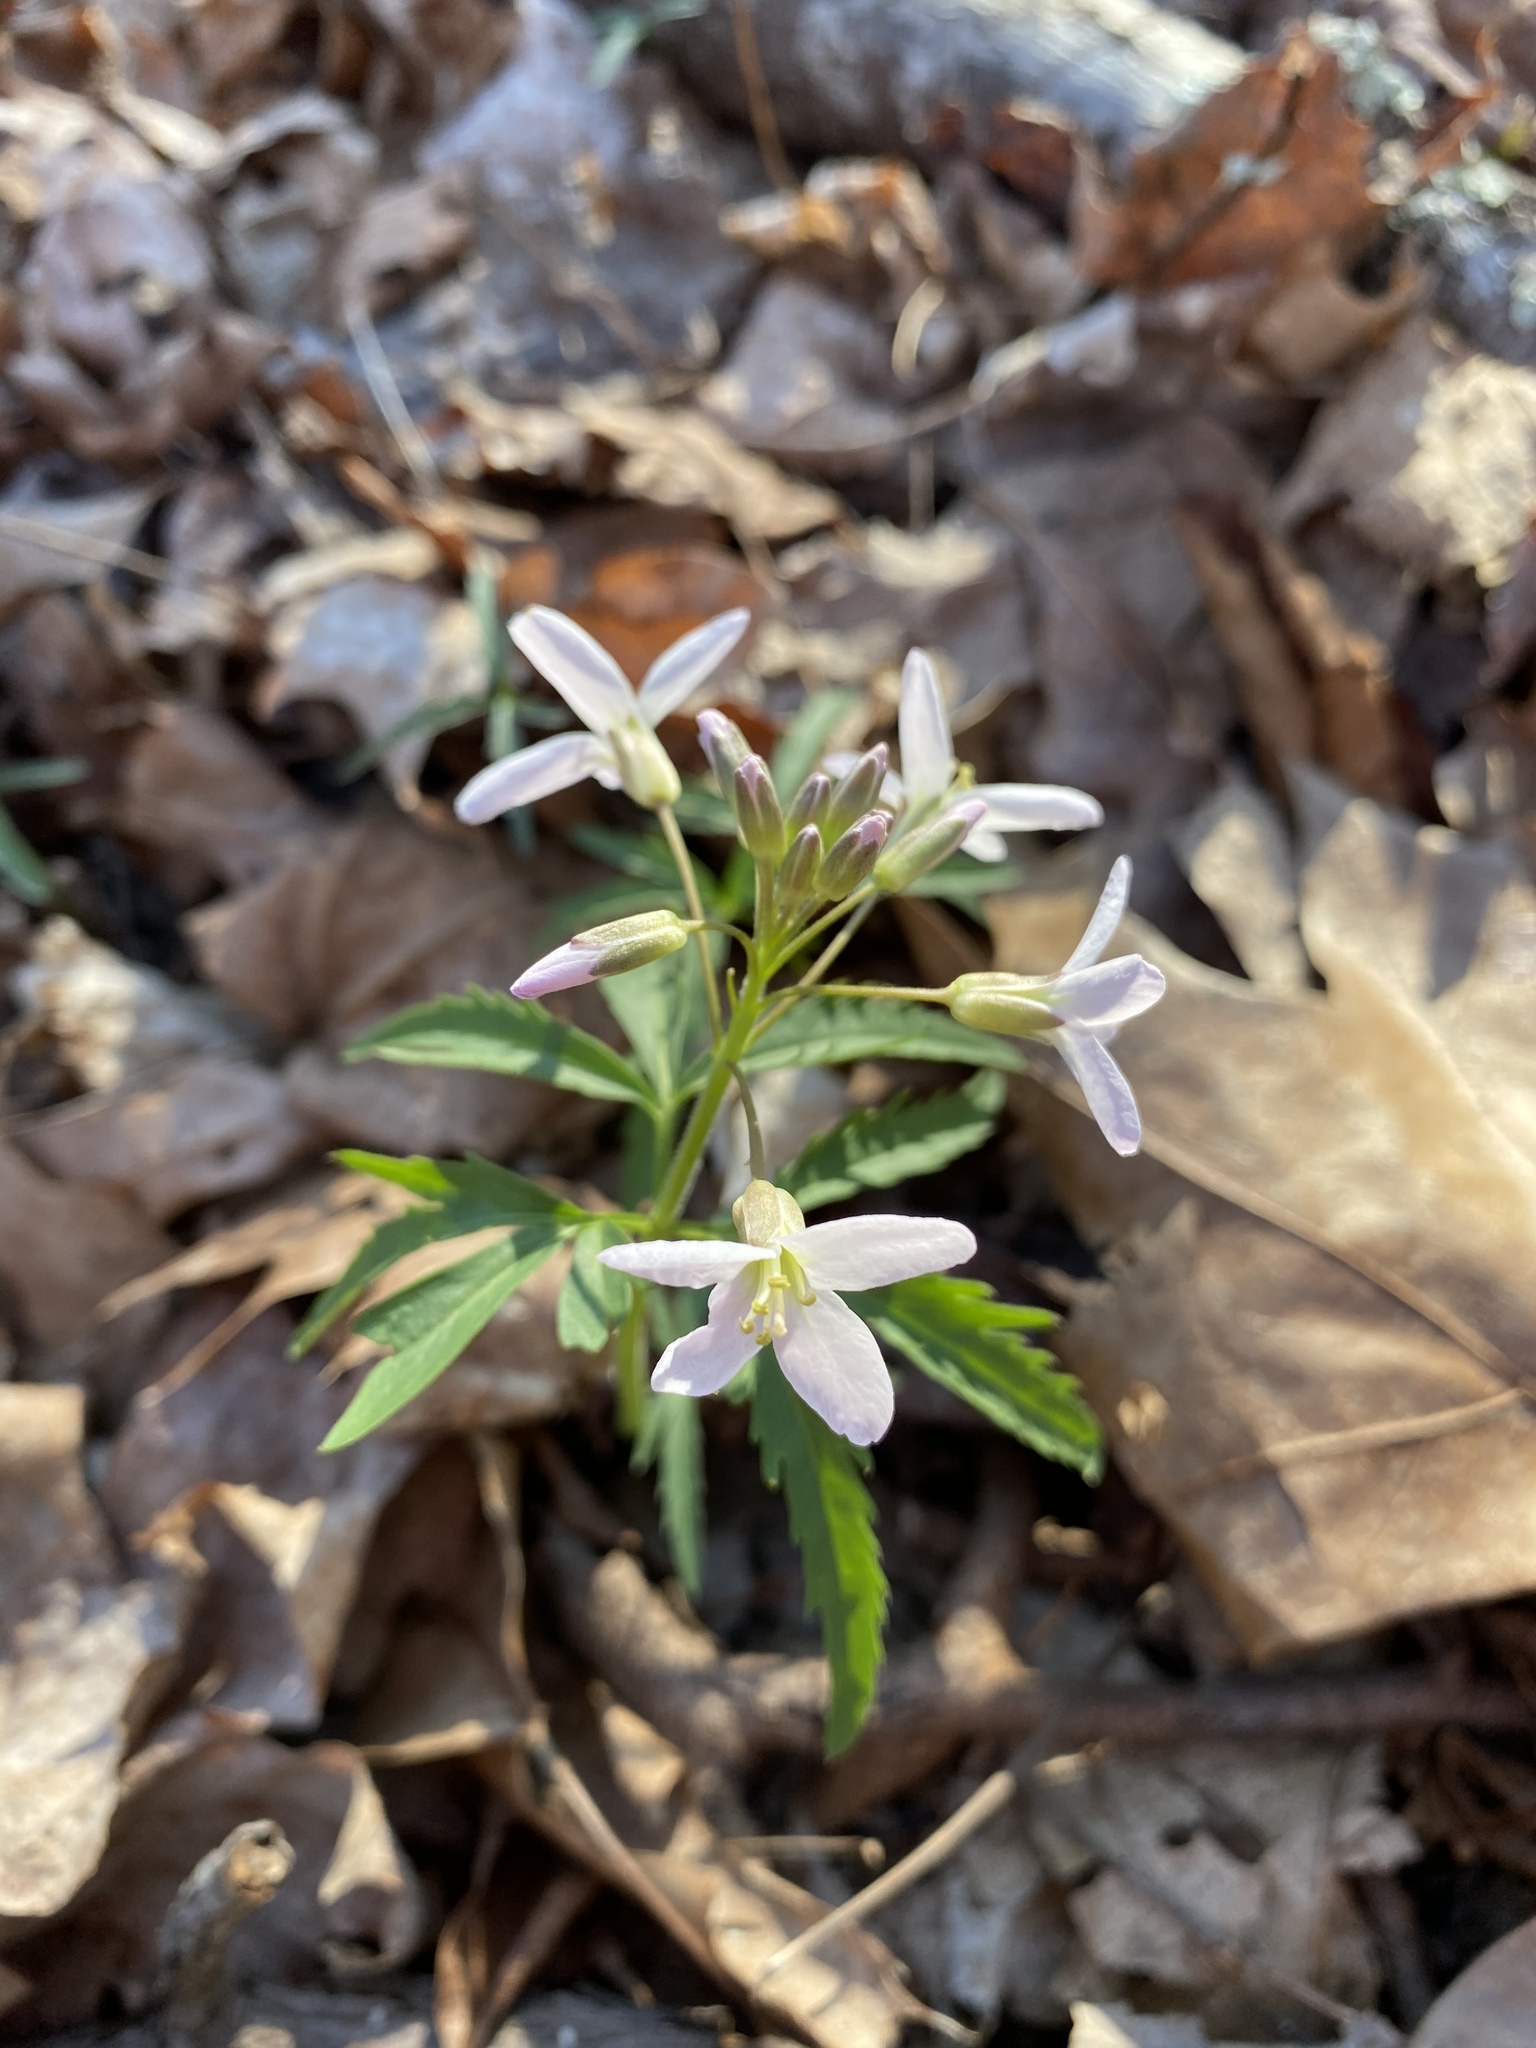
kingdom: Plantae
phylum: Tracheophyta
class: Magnoliopsida
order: Brassicales
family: Brassicaceae
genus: Cardamine
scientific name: Cardamine concatenata
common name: Cut-leaf toothcup
